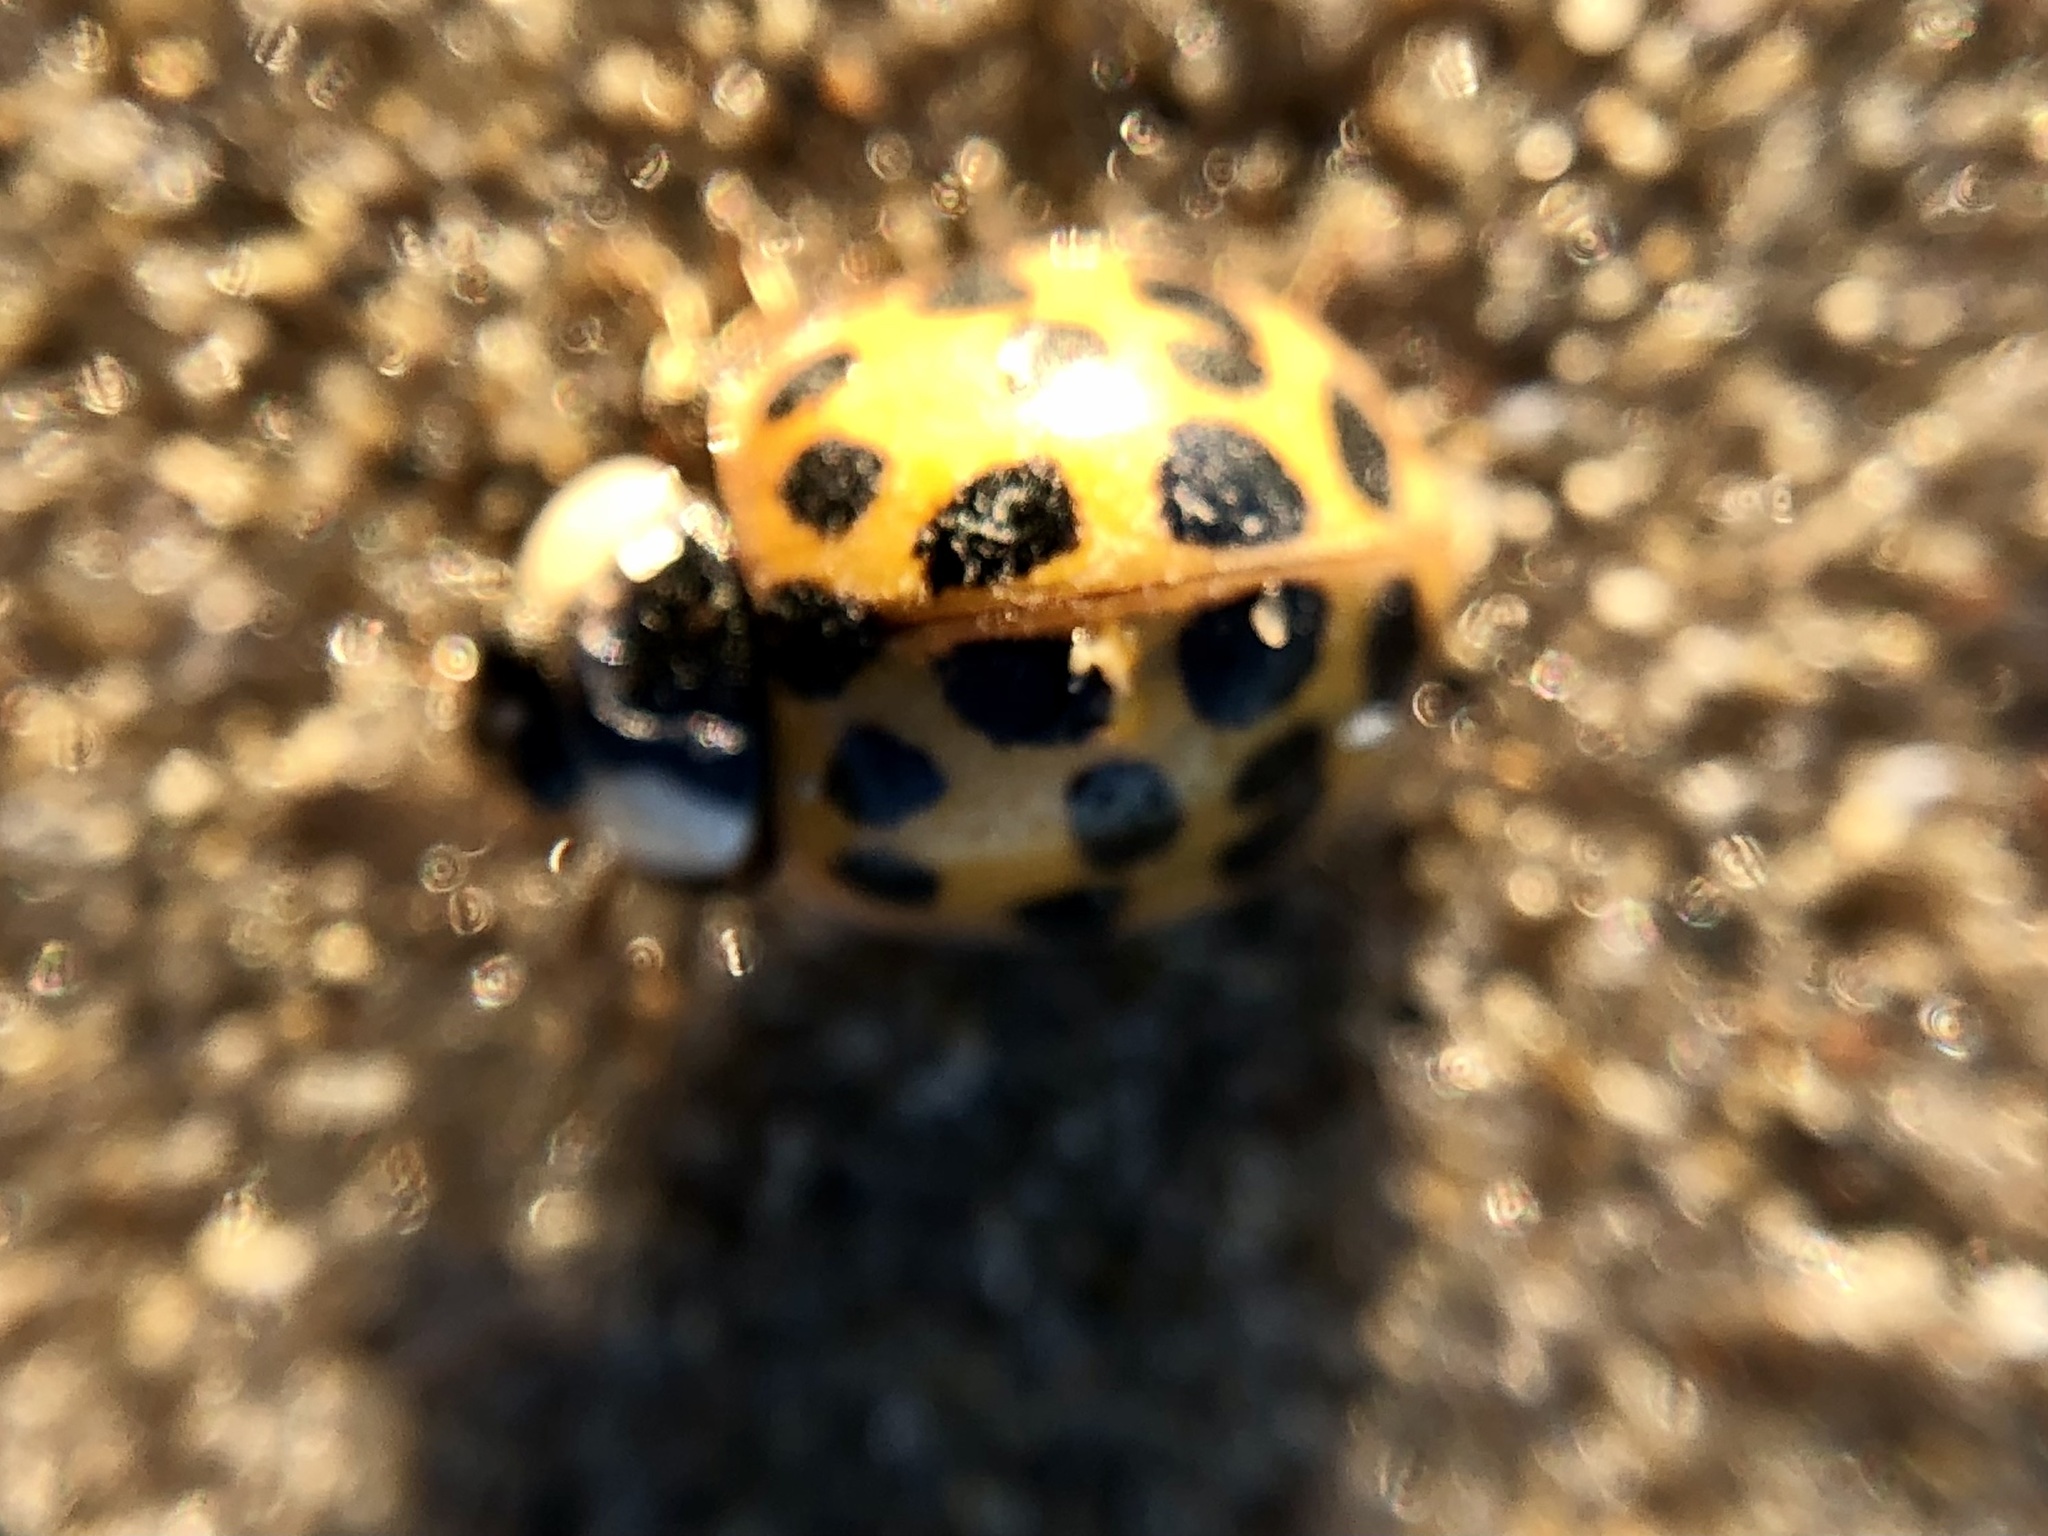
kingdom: Animalia
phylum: Arthropoda
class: Insecta
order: Coleoptera
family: Coccinellidae
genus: Harmonia
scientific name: Harmonia axyridis
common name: Harlequin ladybird
